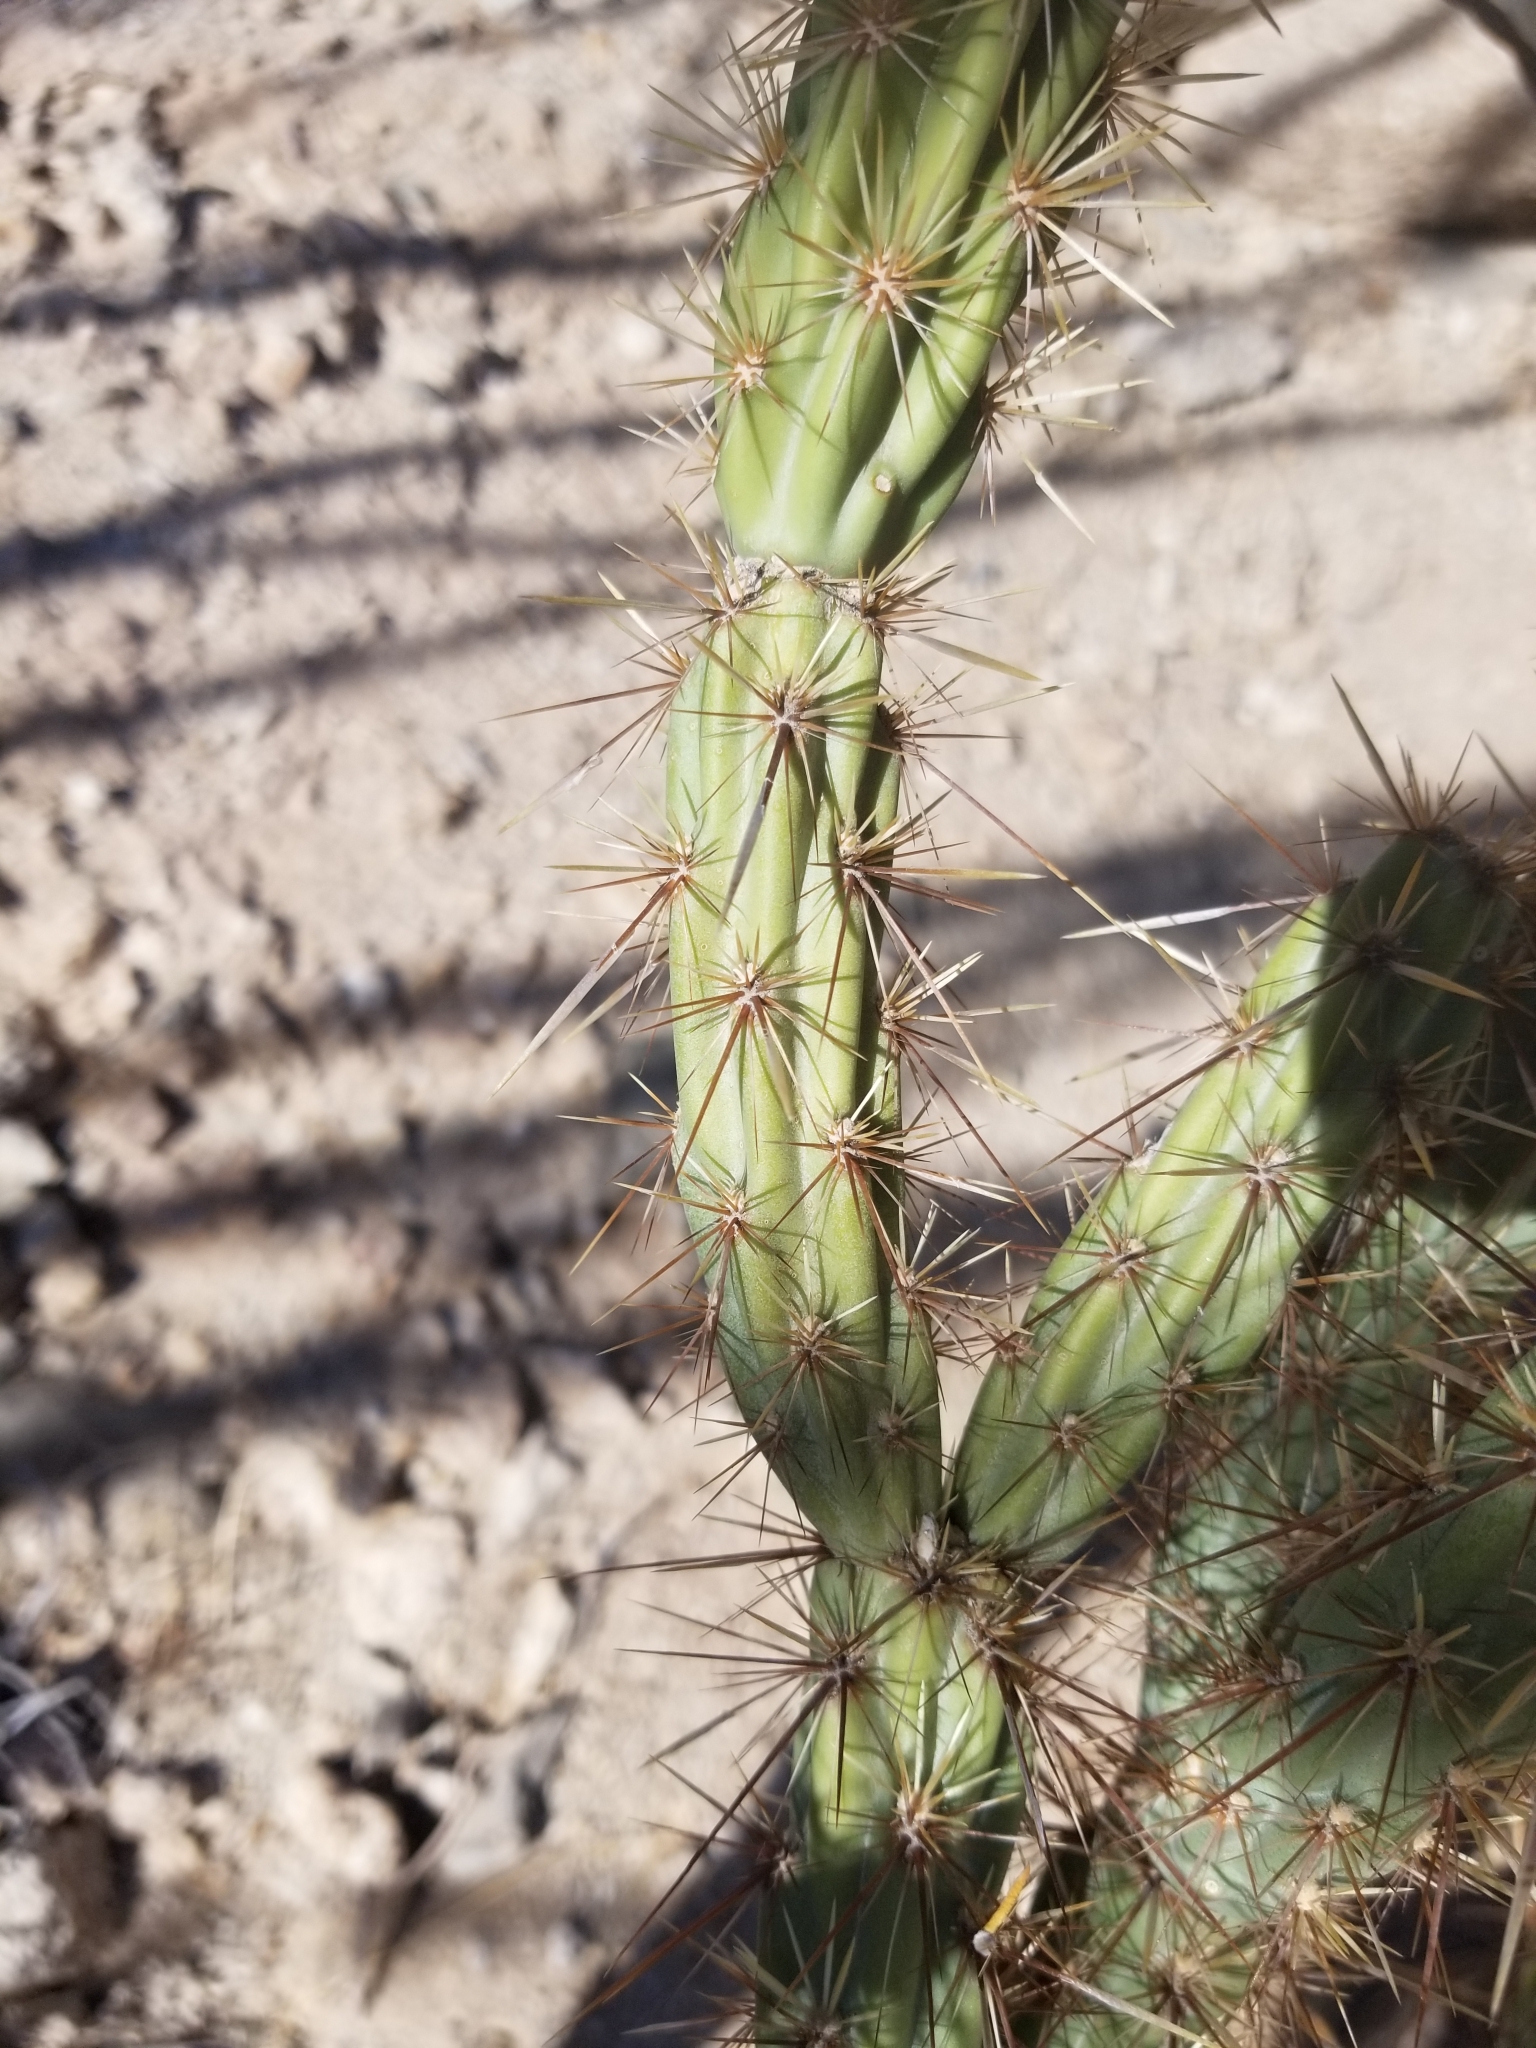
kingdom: Plantae
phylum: Tracheophyta
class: Magnoliopsida
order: Caryophyllales
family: Cactaceae
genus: Cylindropuntia
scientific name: Cylindropuntia acanthocarpa
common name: Buckhorn cholla
